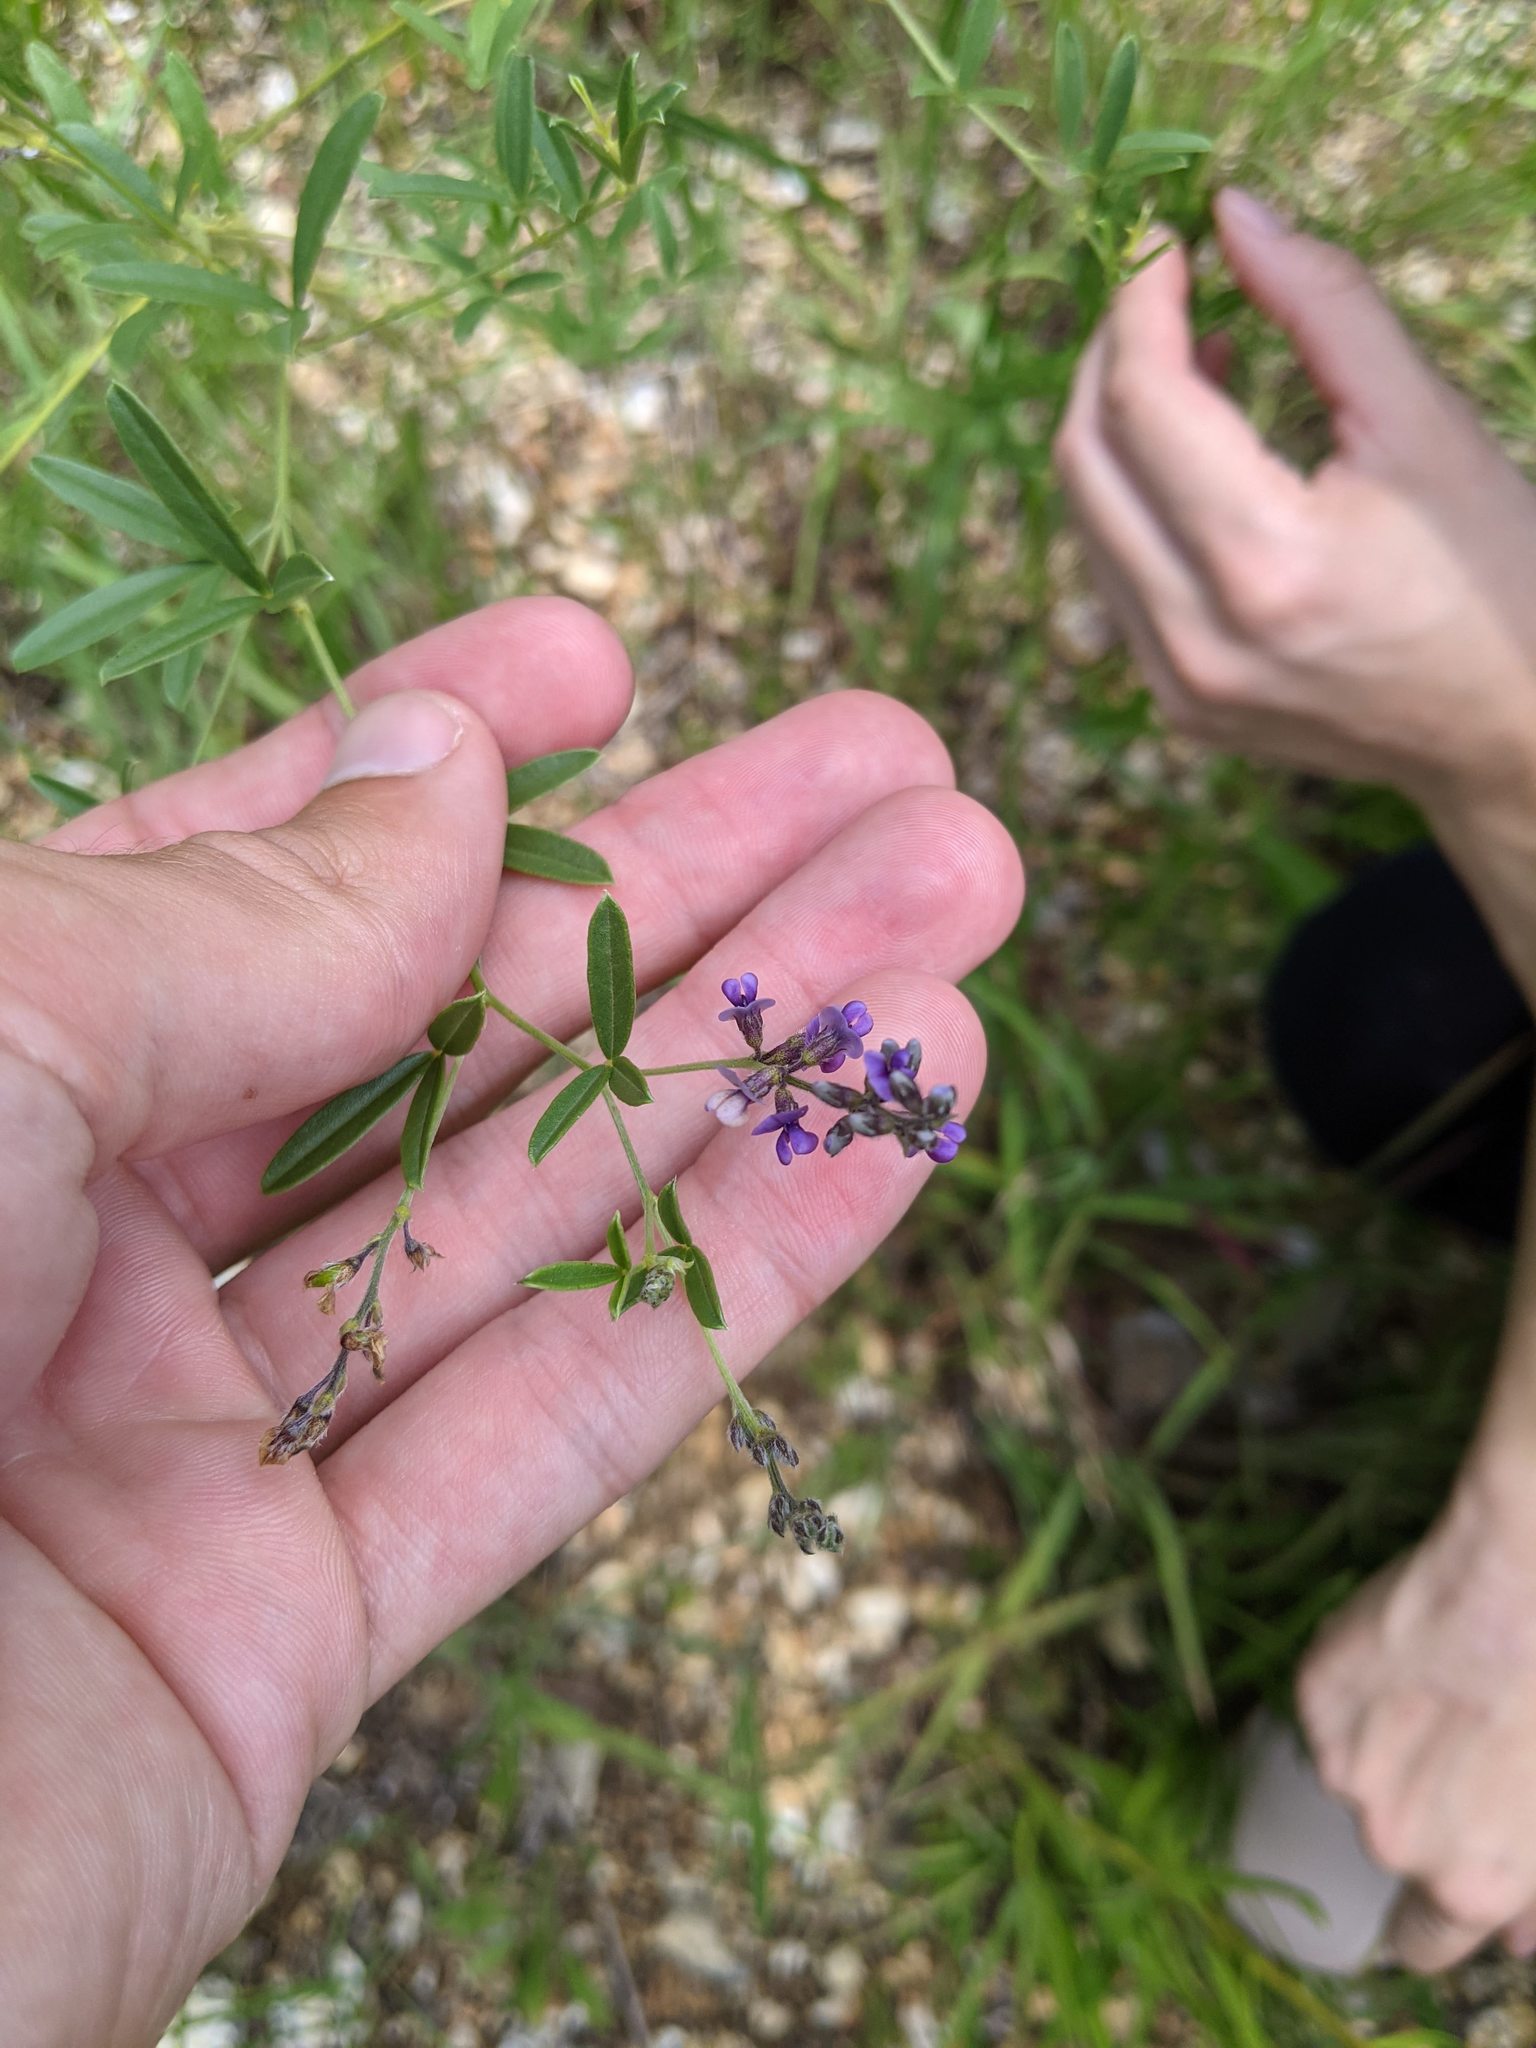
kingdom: Plantae
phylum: Tracheophyta
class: Magnoliopsida
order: Fabales
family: Fabaceae
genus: Pediomelum
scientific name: Pediomelum tenuiflorum
